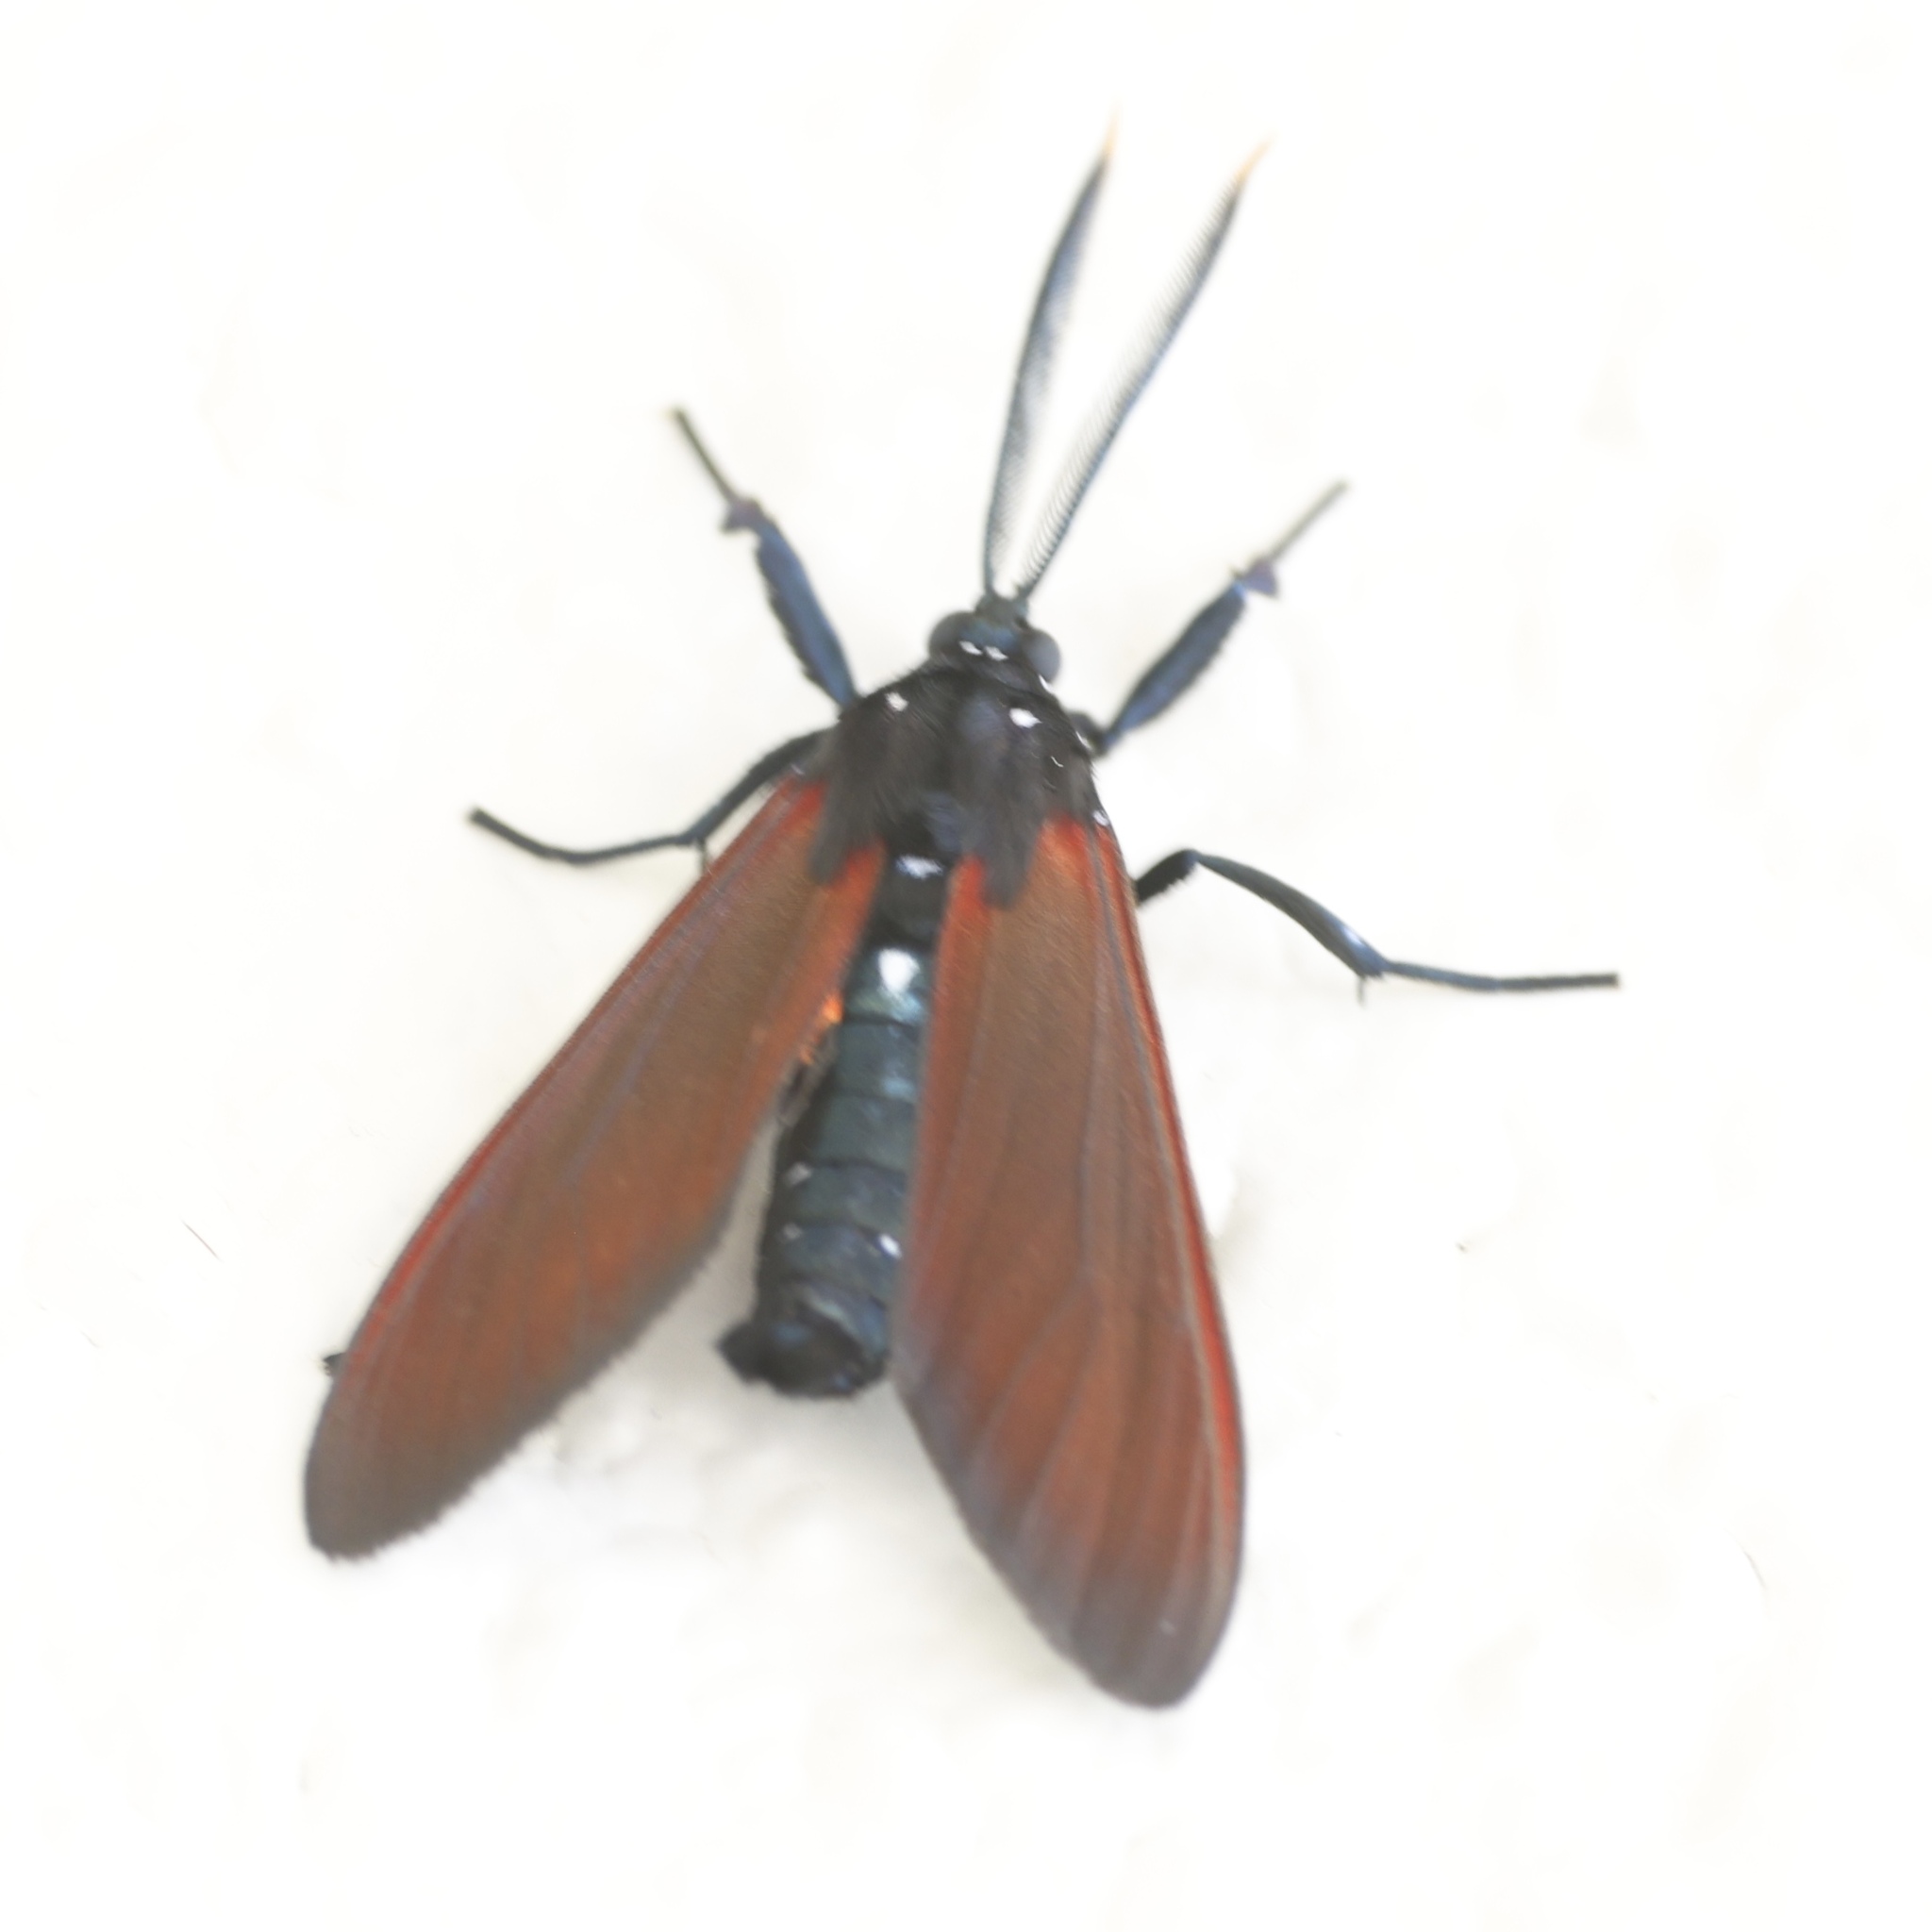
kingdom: Animalia
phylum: Arthropoda
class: Insecta
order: Lepidoptera
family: Erebidae
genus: Empyreuma
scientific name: Empyreuma pugione
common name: Spotted oleander caterpillar moth
